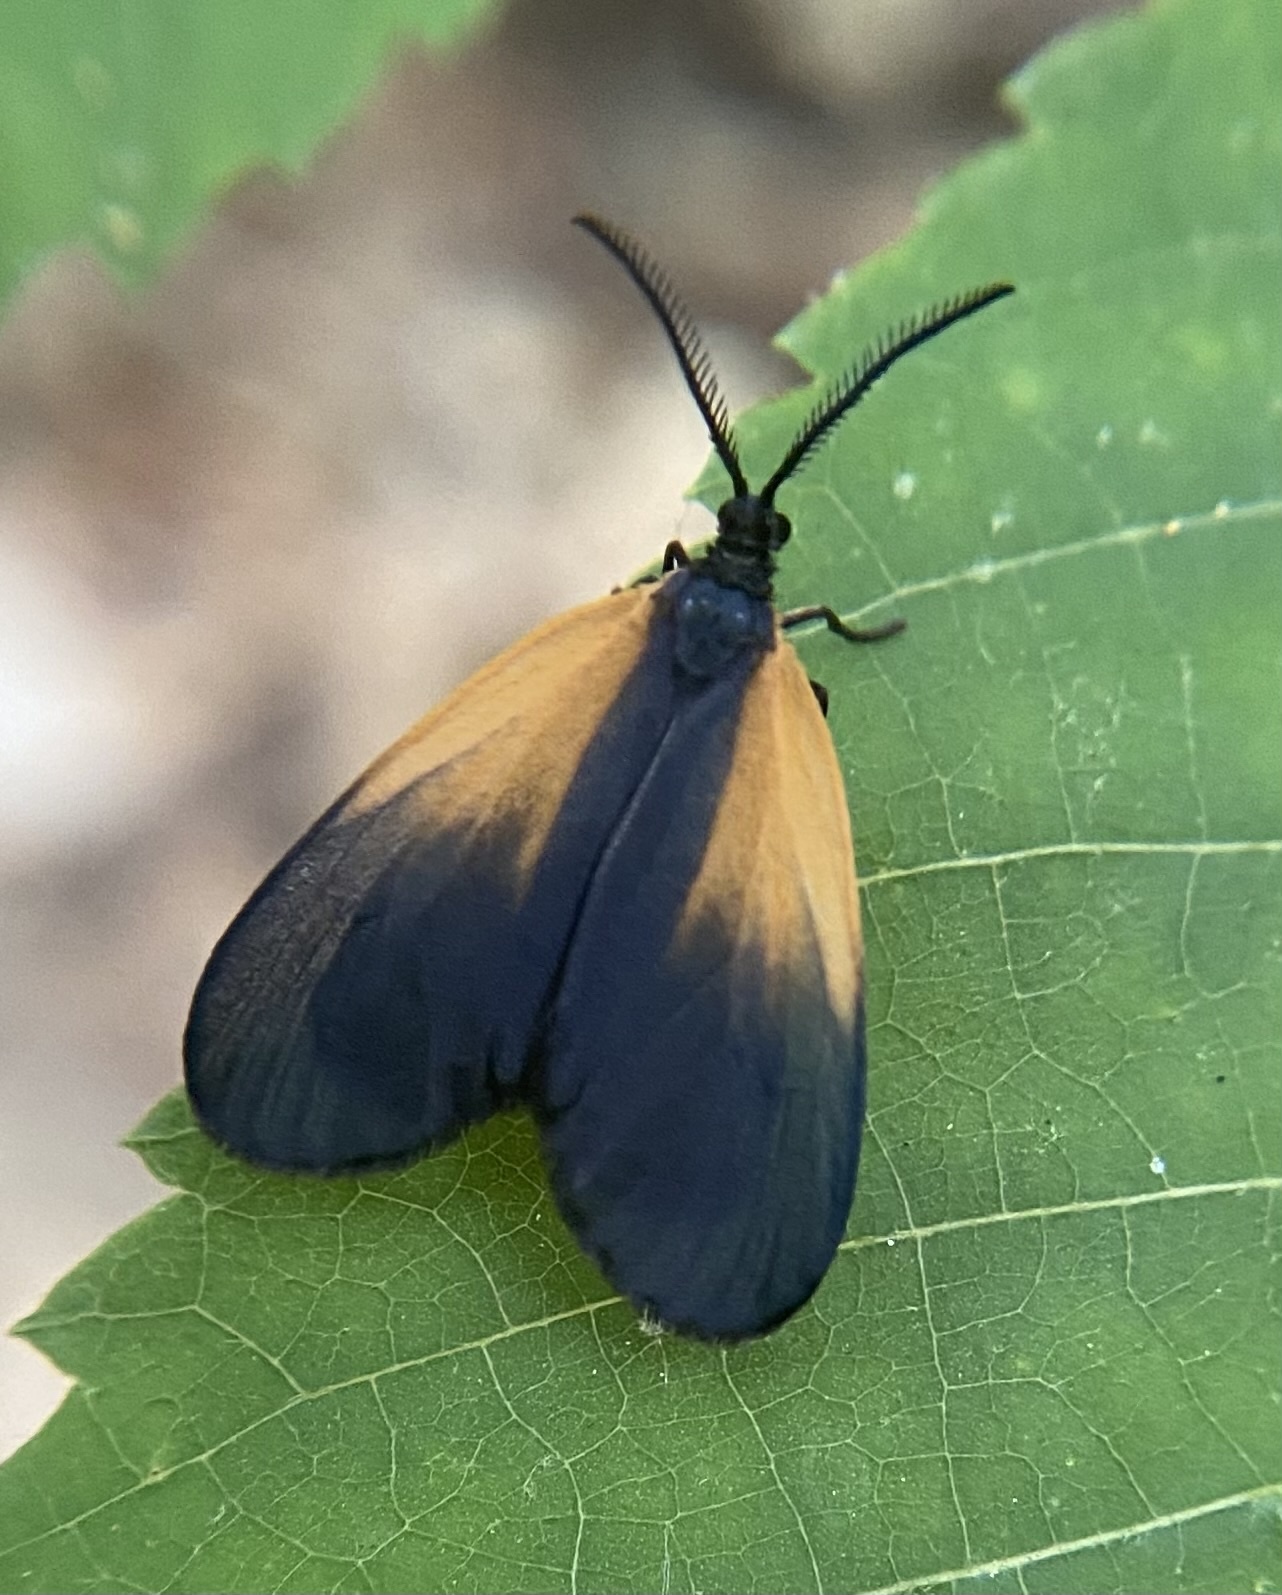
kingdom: Animalia
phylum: Arthropoda
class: Insecta
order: Lepidoptera
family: Zygaenidae
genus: Malthaca
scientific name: Malthaca dimidiata
